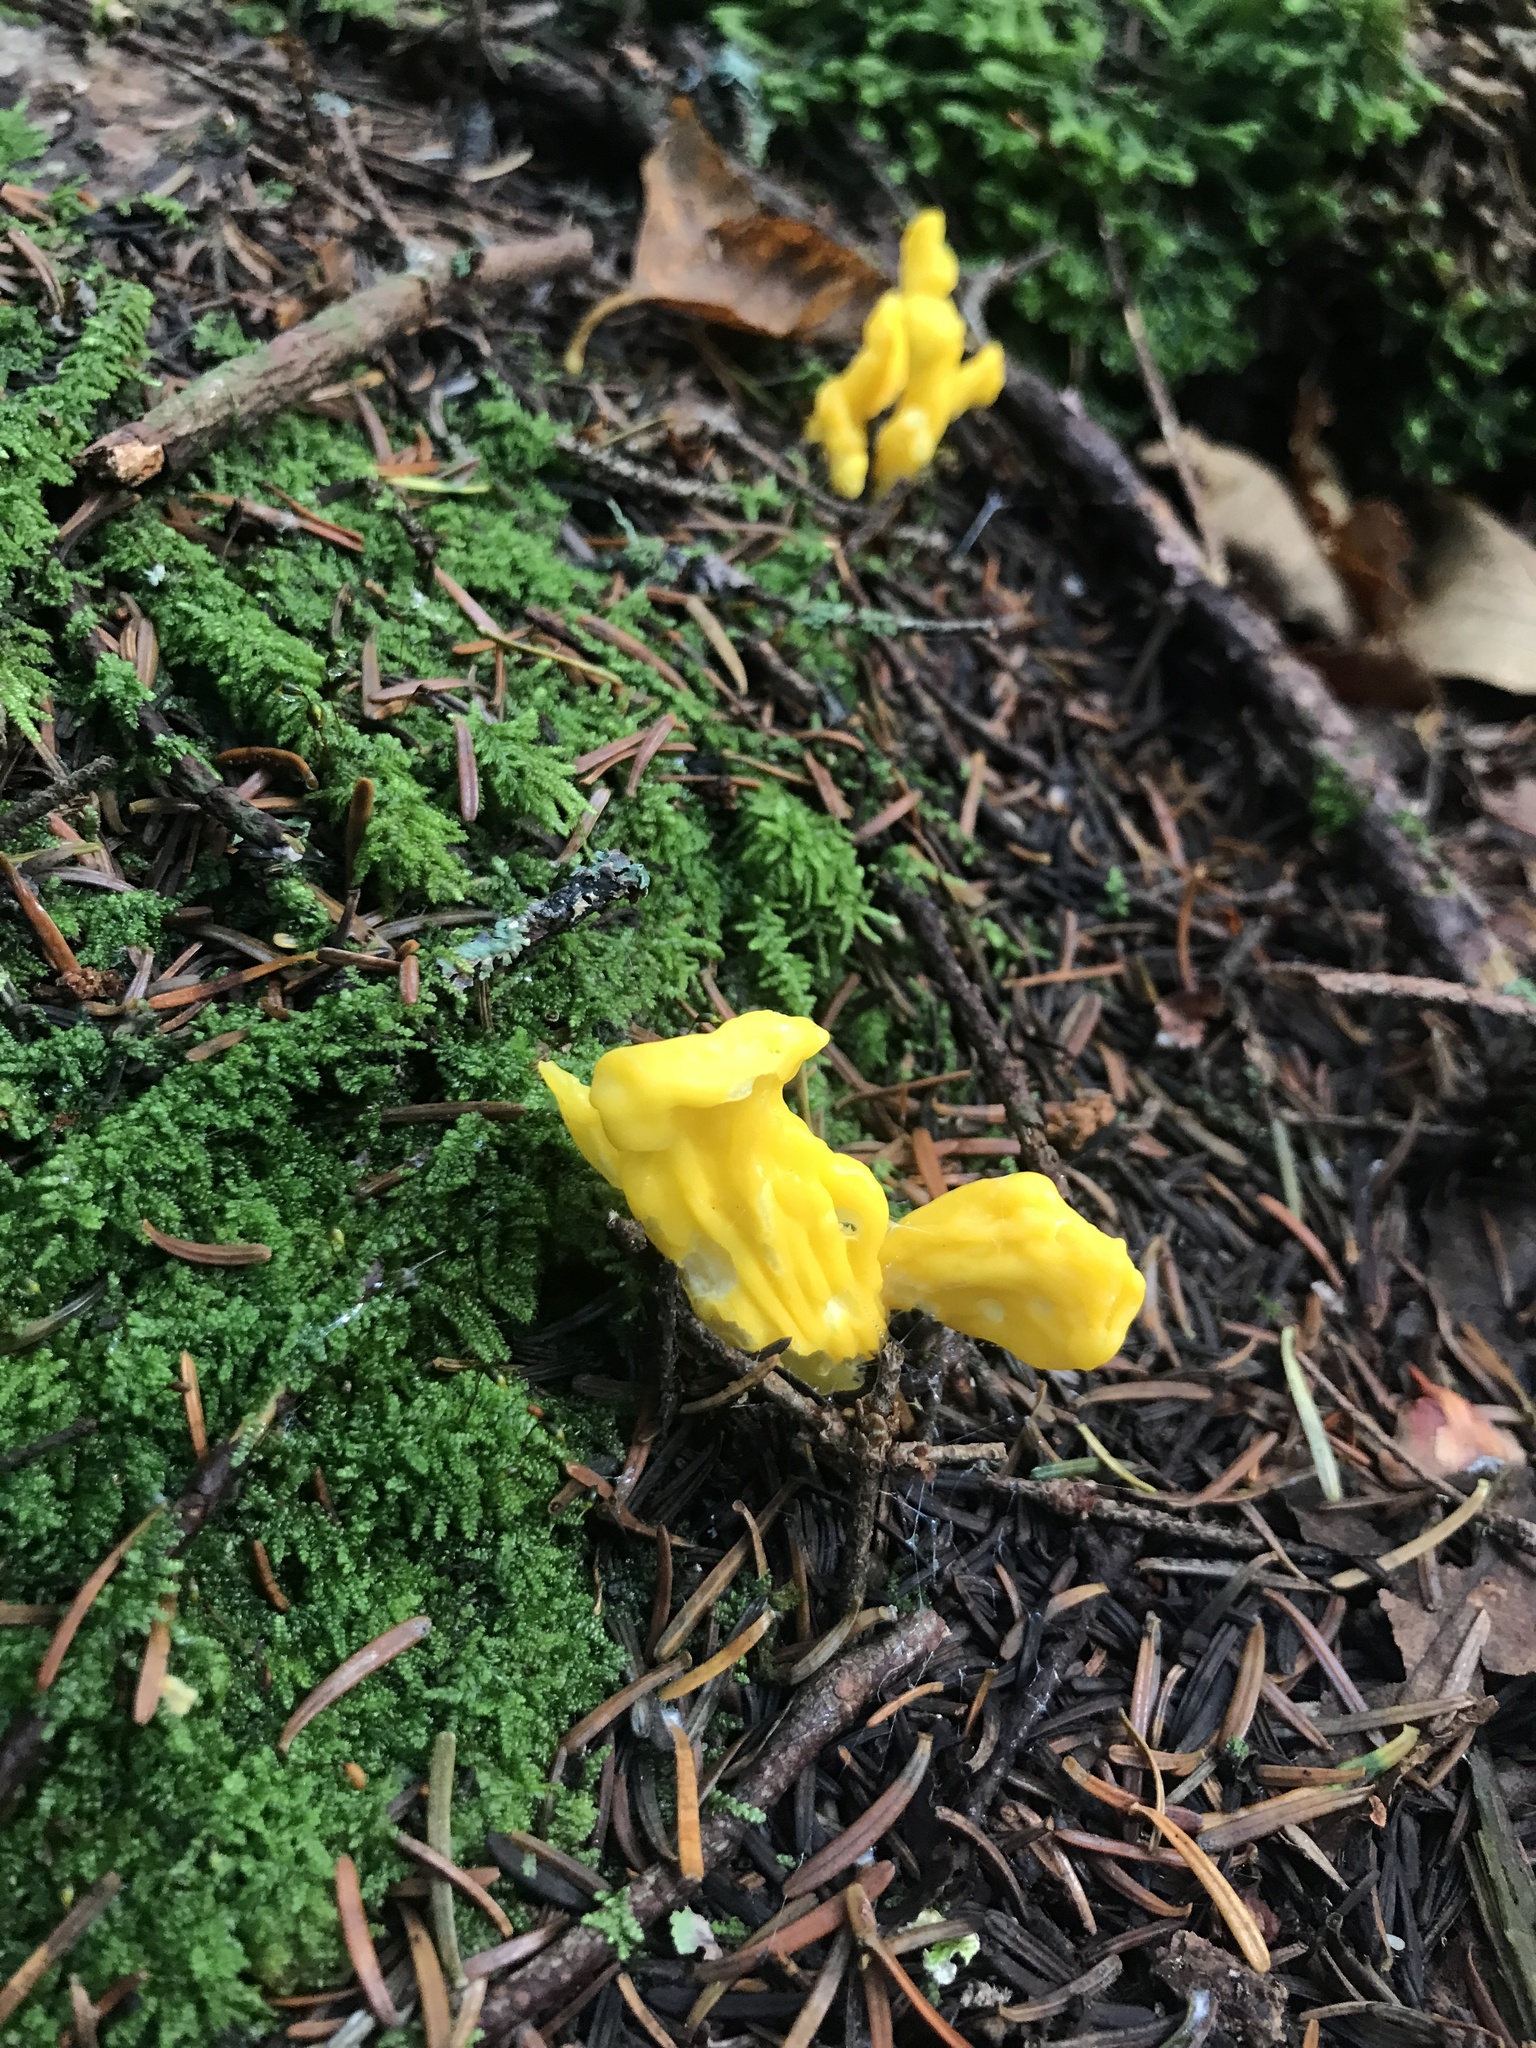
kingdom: Fungi
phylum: Ascomycota
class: Neolectomycetes
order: Neolectales
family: Neolectaceae
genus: Neolecta
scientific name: Neolecta irregularis
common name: Irregular earth tongue
